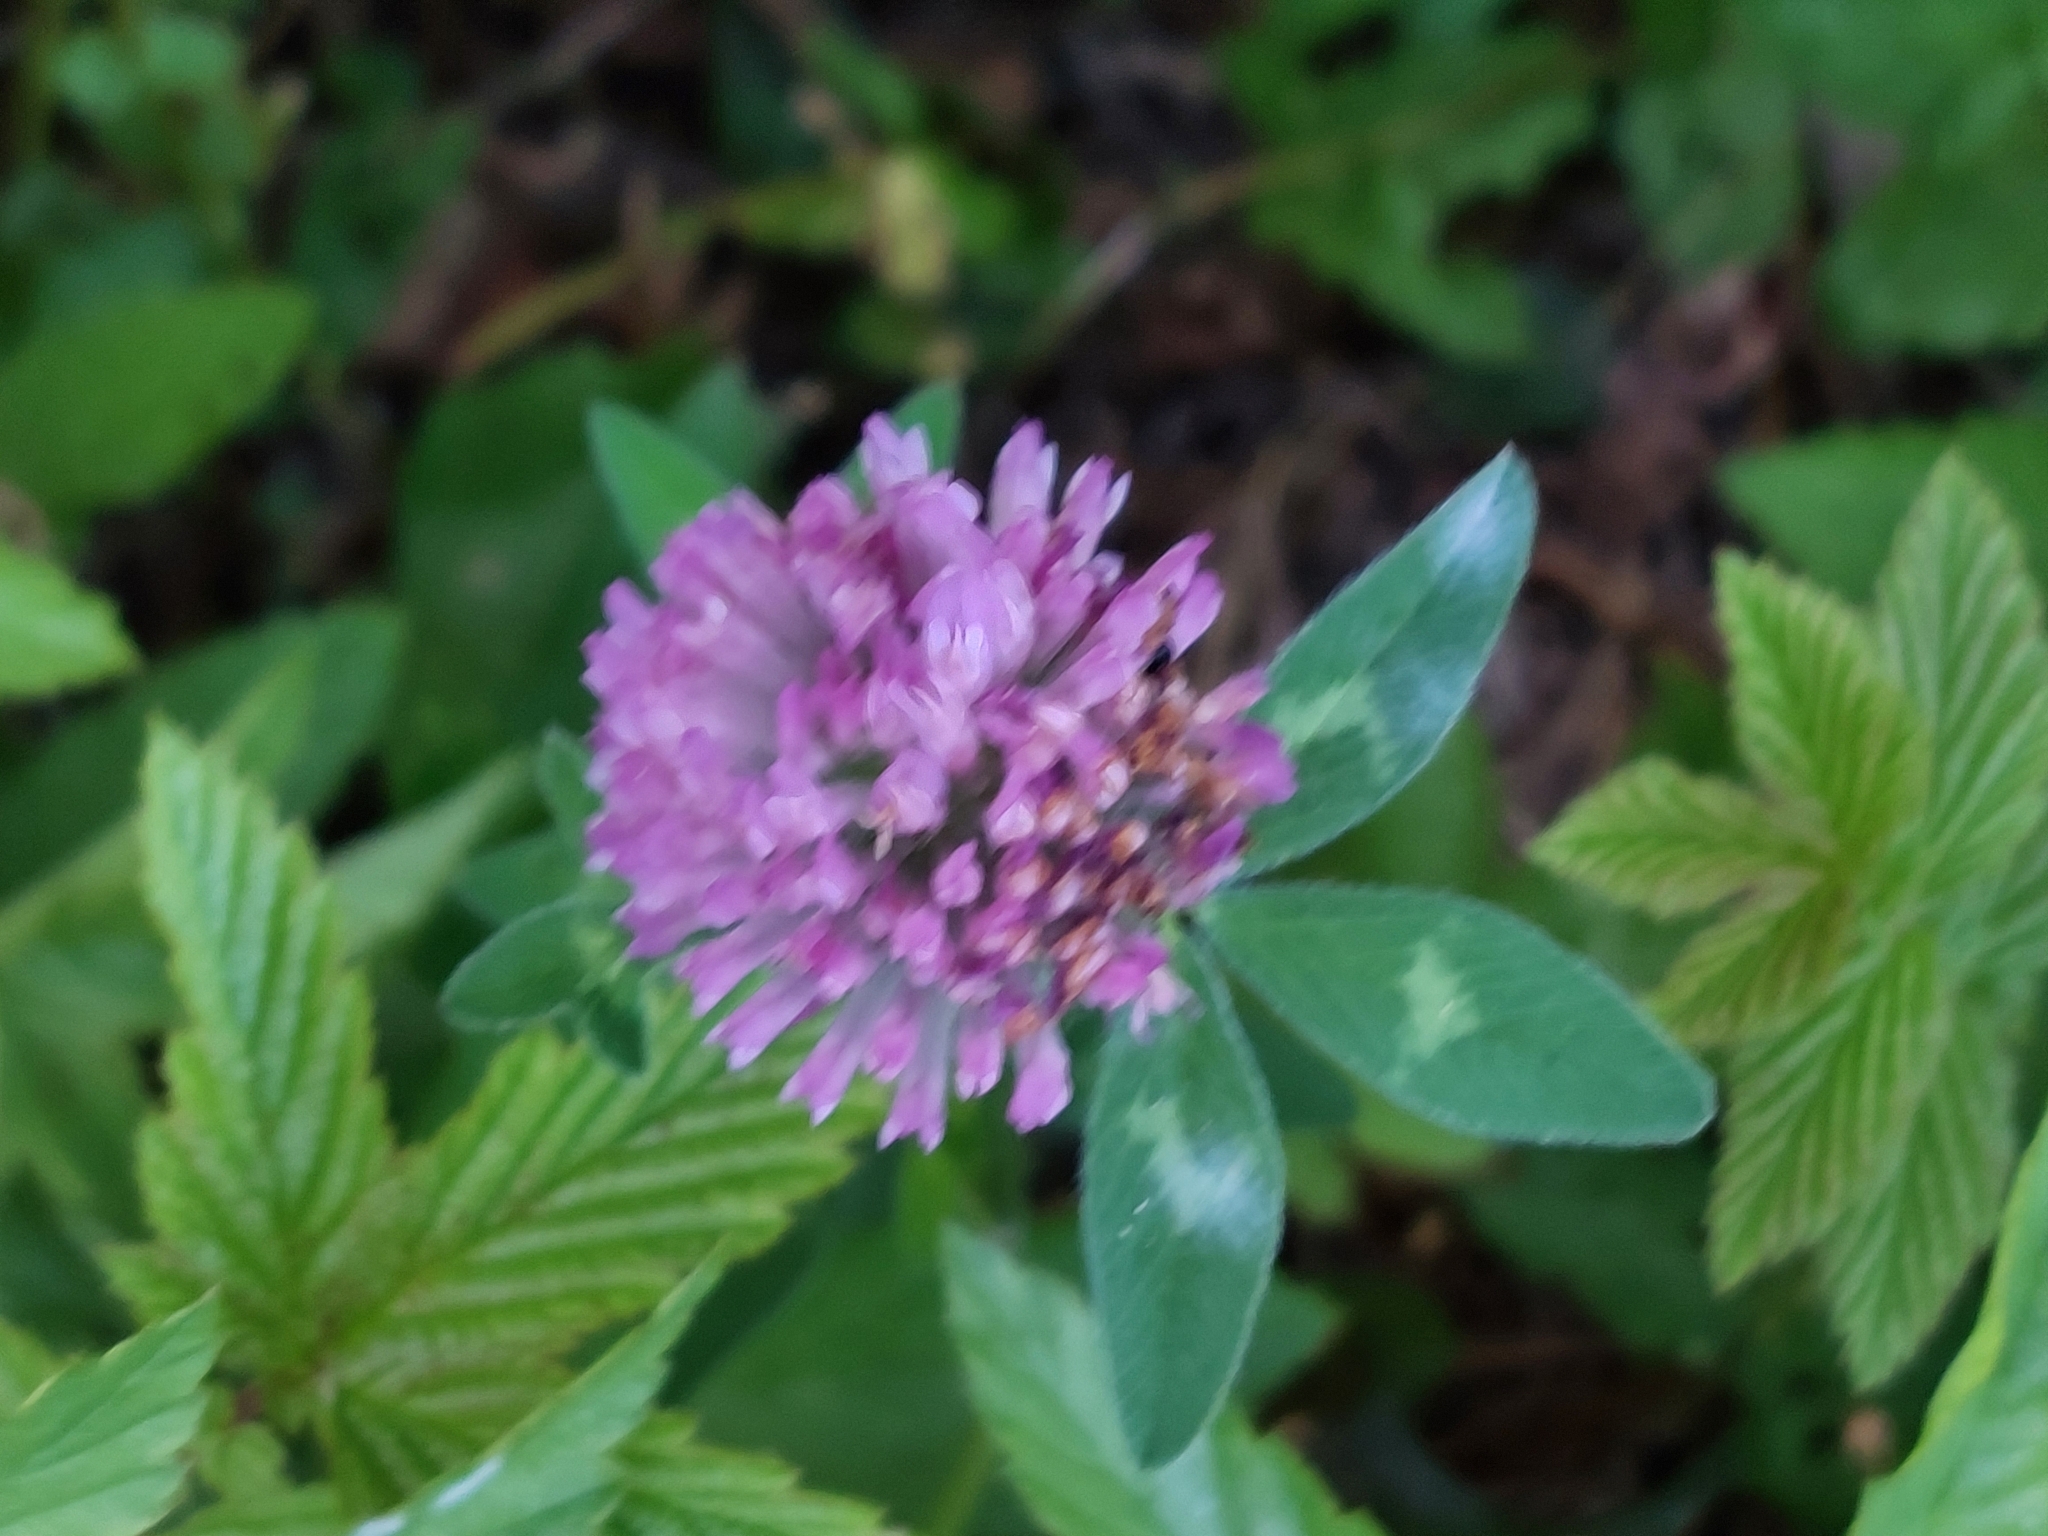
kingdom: Plantae
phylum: Tracheophyta
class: Magnoliopsida
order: Fabales
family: Fabaceae
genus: Trifolium
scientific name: Trifolium pratense
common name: Red clover
